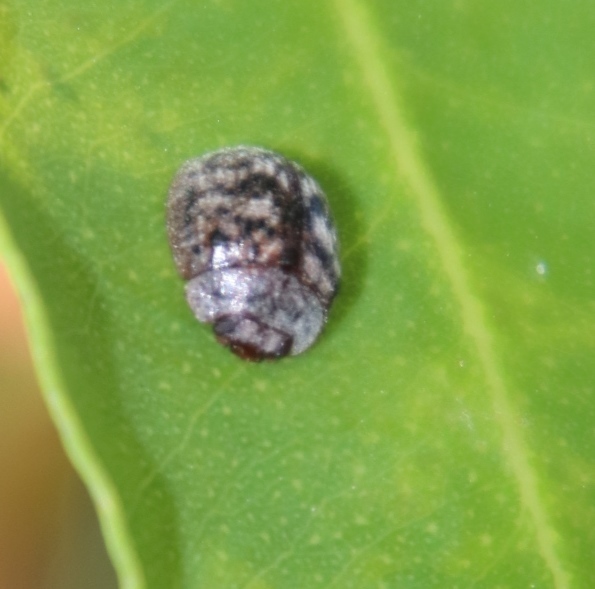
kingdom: Animalia
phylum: Arthropoda
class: Insecta
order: Coleoptera
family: Chrysomelidae
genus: Trachymela
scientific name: Trachymela
